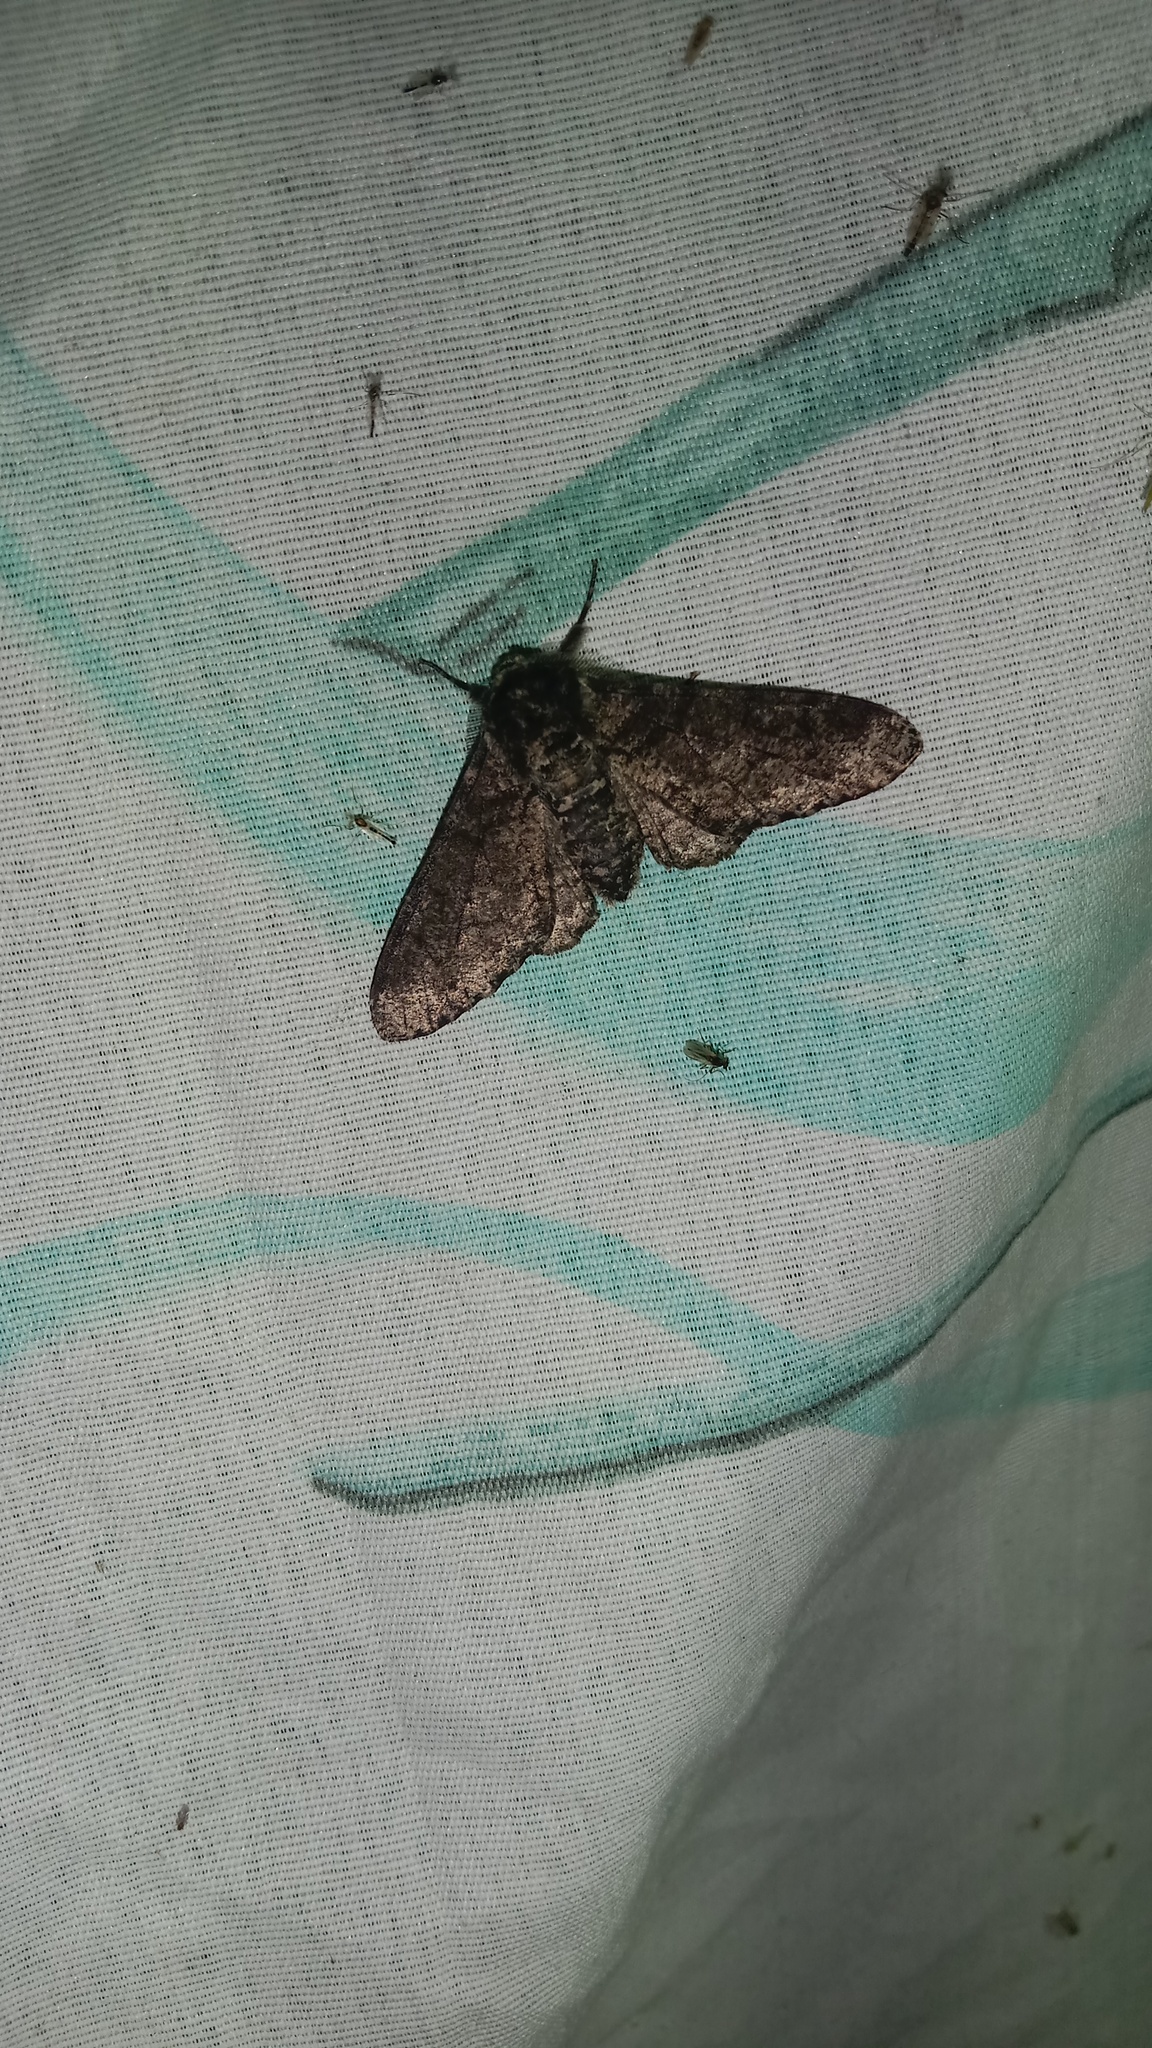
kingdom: Animalia
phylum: Arthropoda
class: Insecta
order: Lepidoptera
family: Geometridae
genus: Biston
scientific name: Biston betularia
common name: Peppered moth
